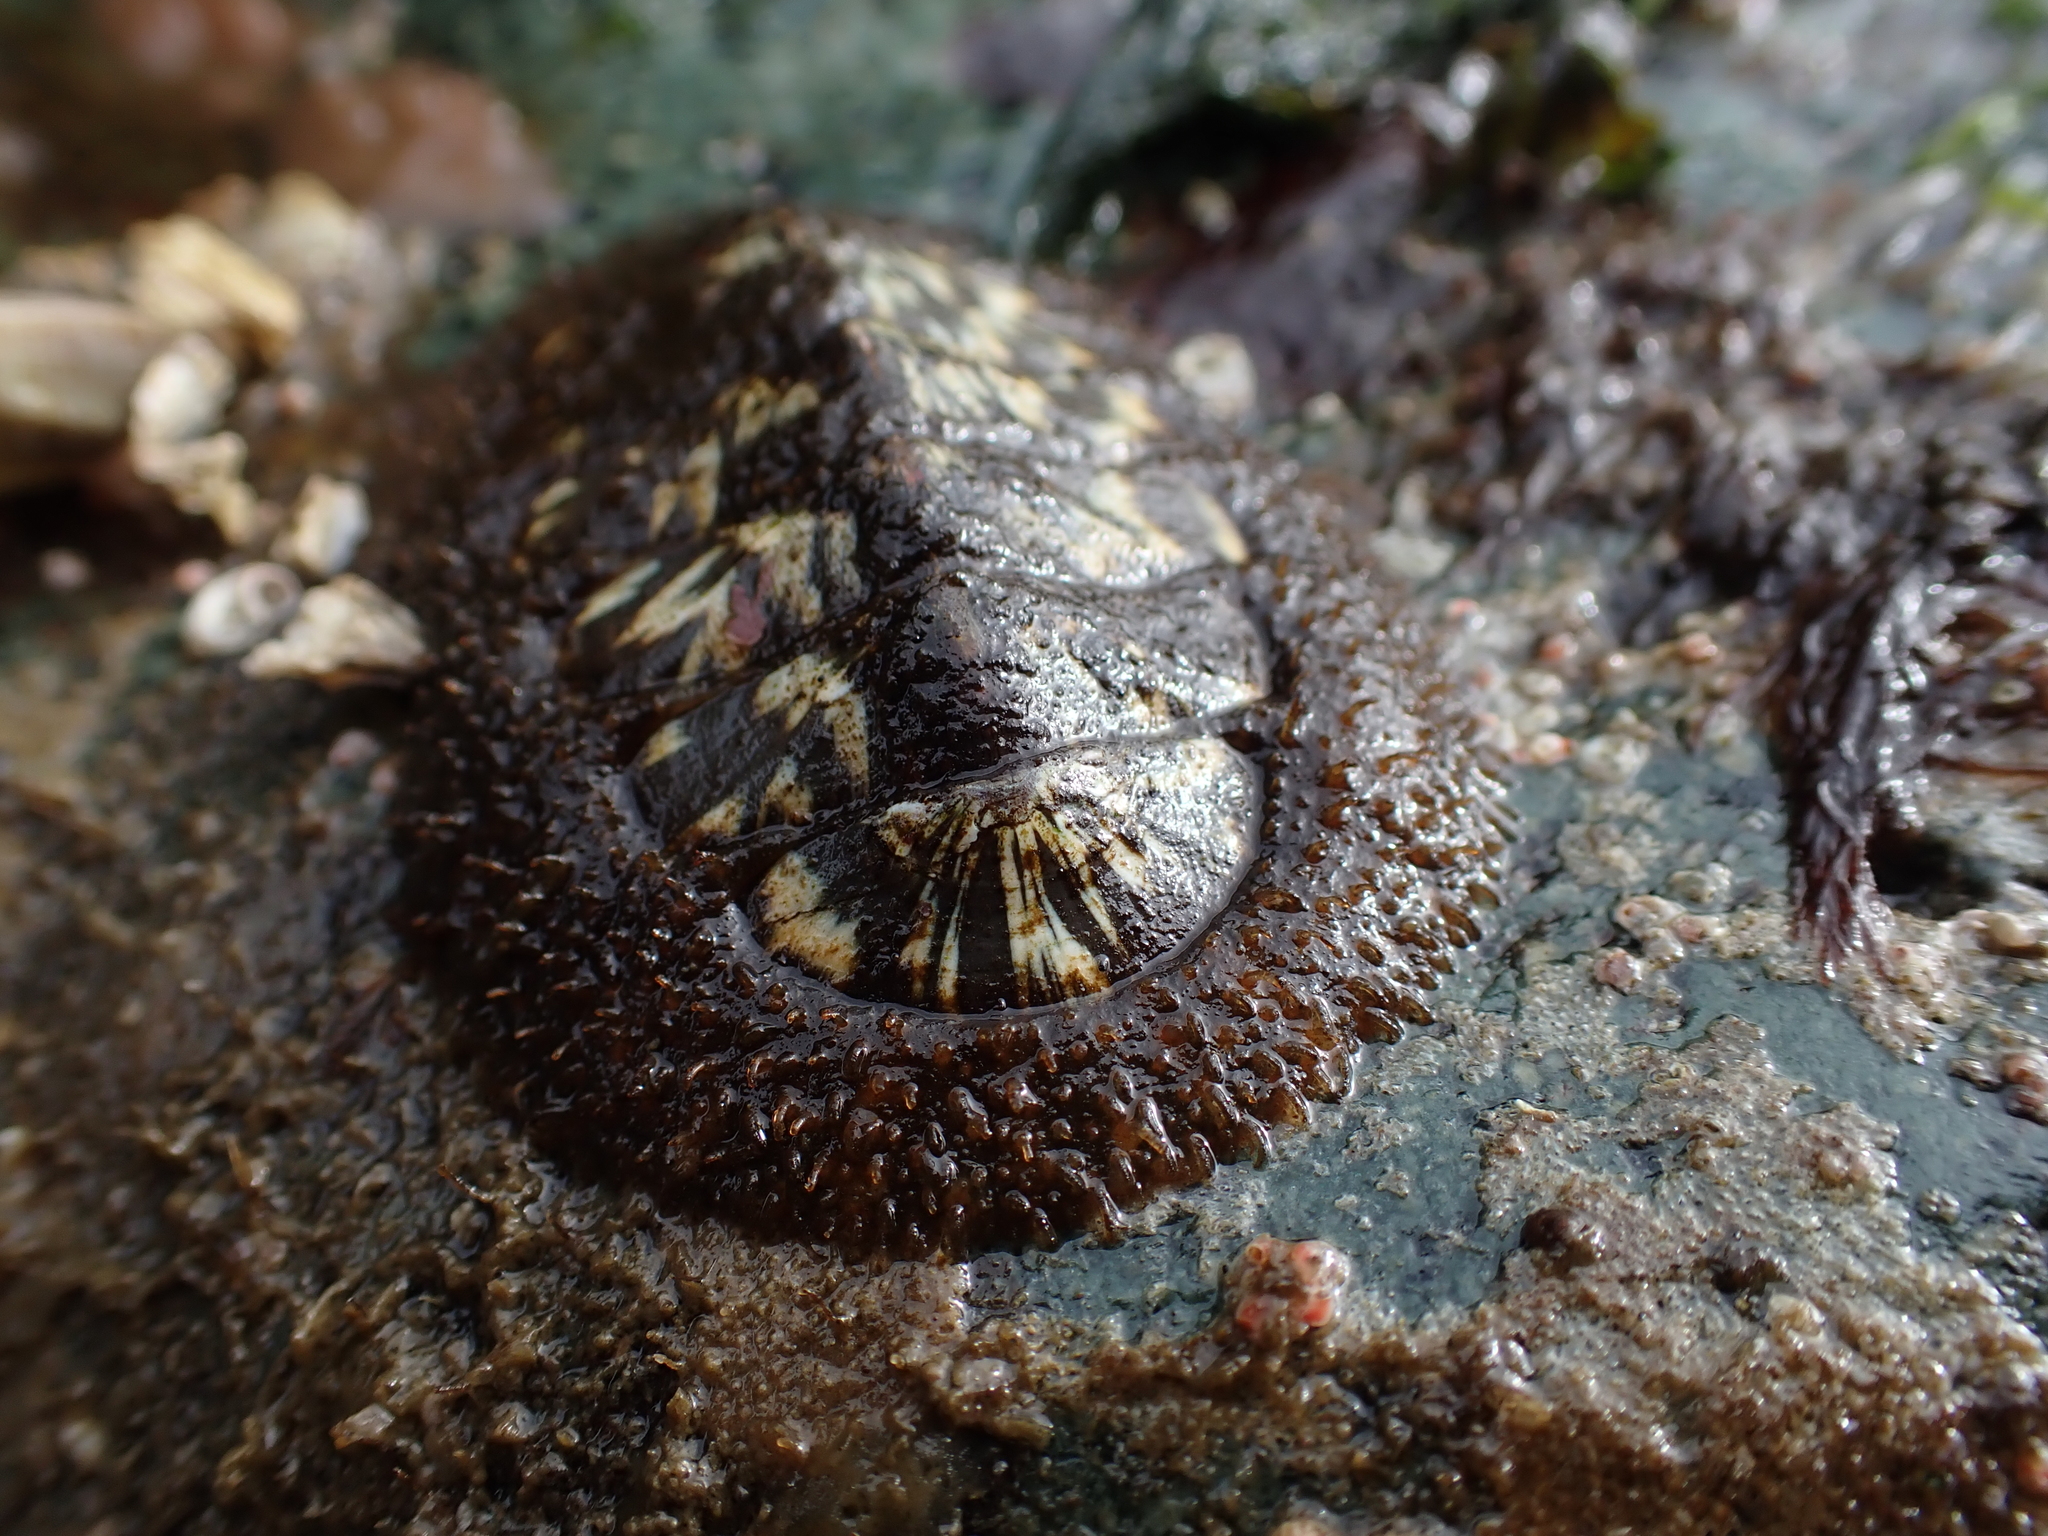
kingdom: Animalia
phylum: Mollusca
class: Polyplacophora
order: Chitonida
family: Mopaliidae
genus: Mopalia
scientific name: Mopalia lignosa
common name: Woody chiton
